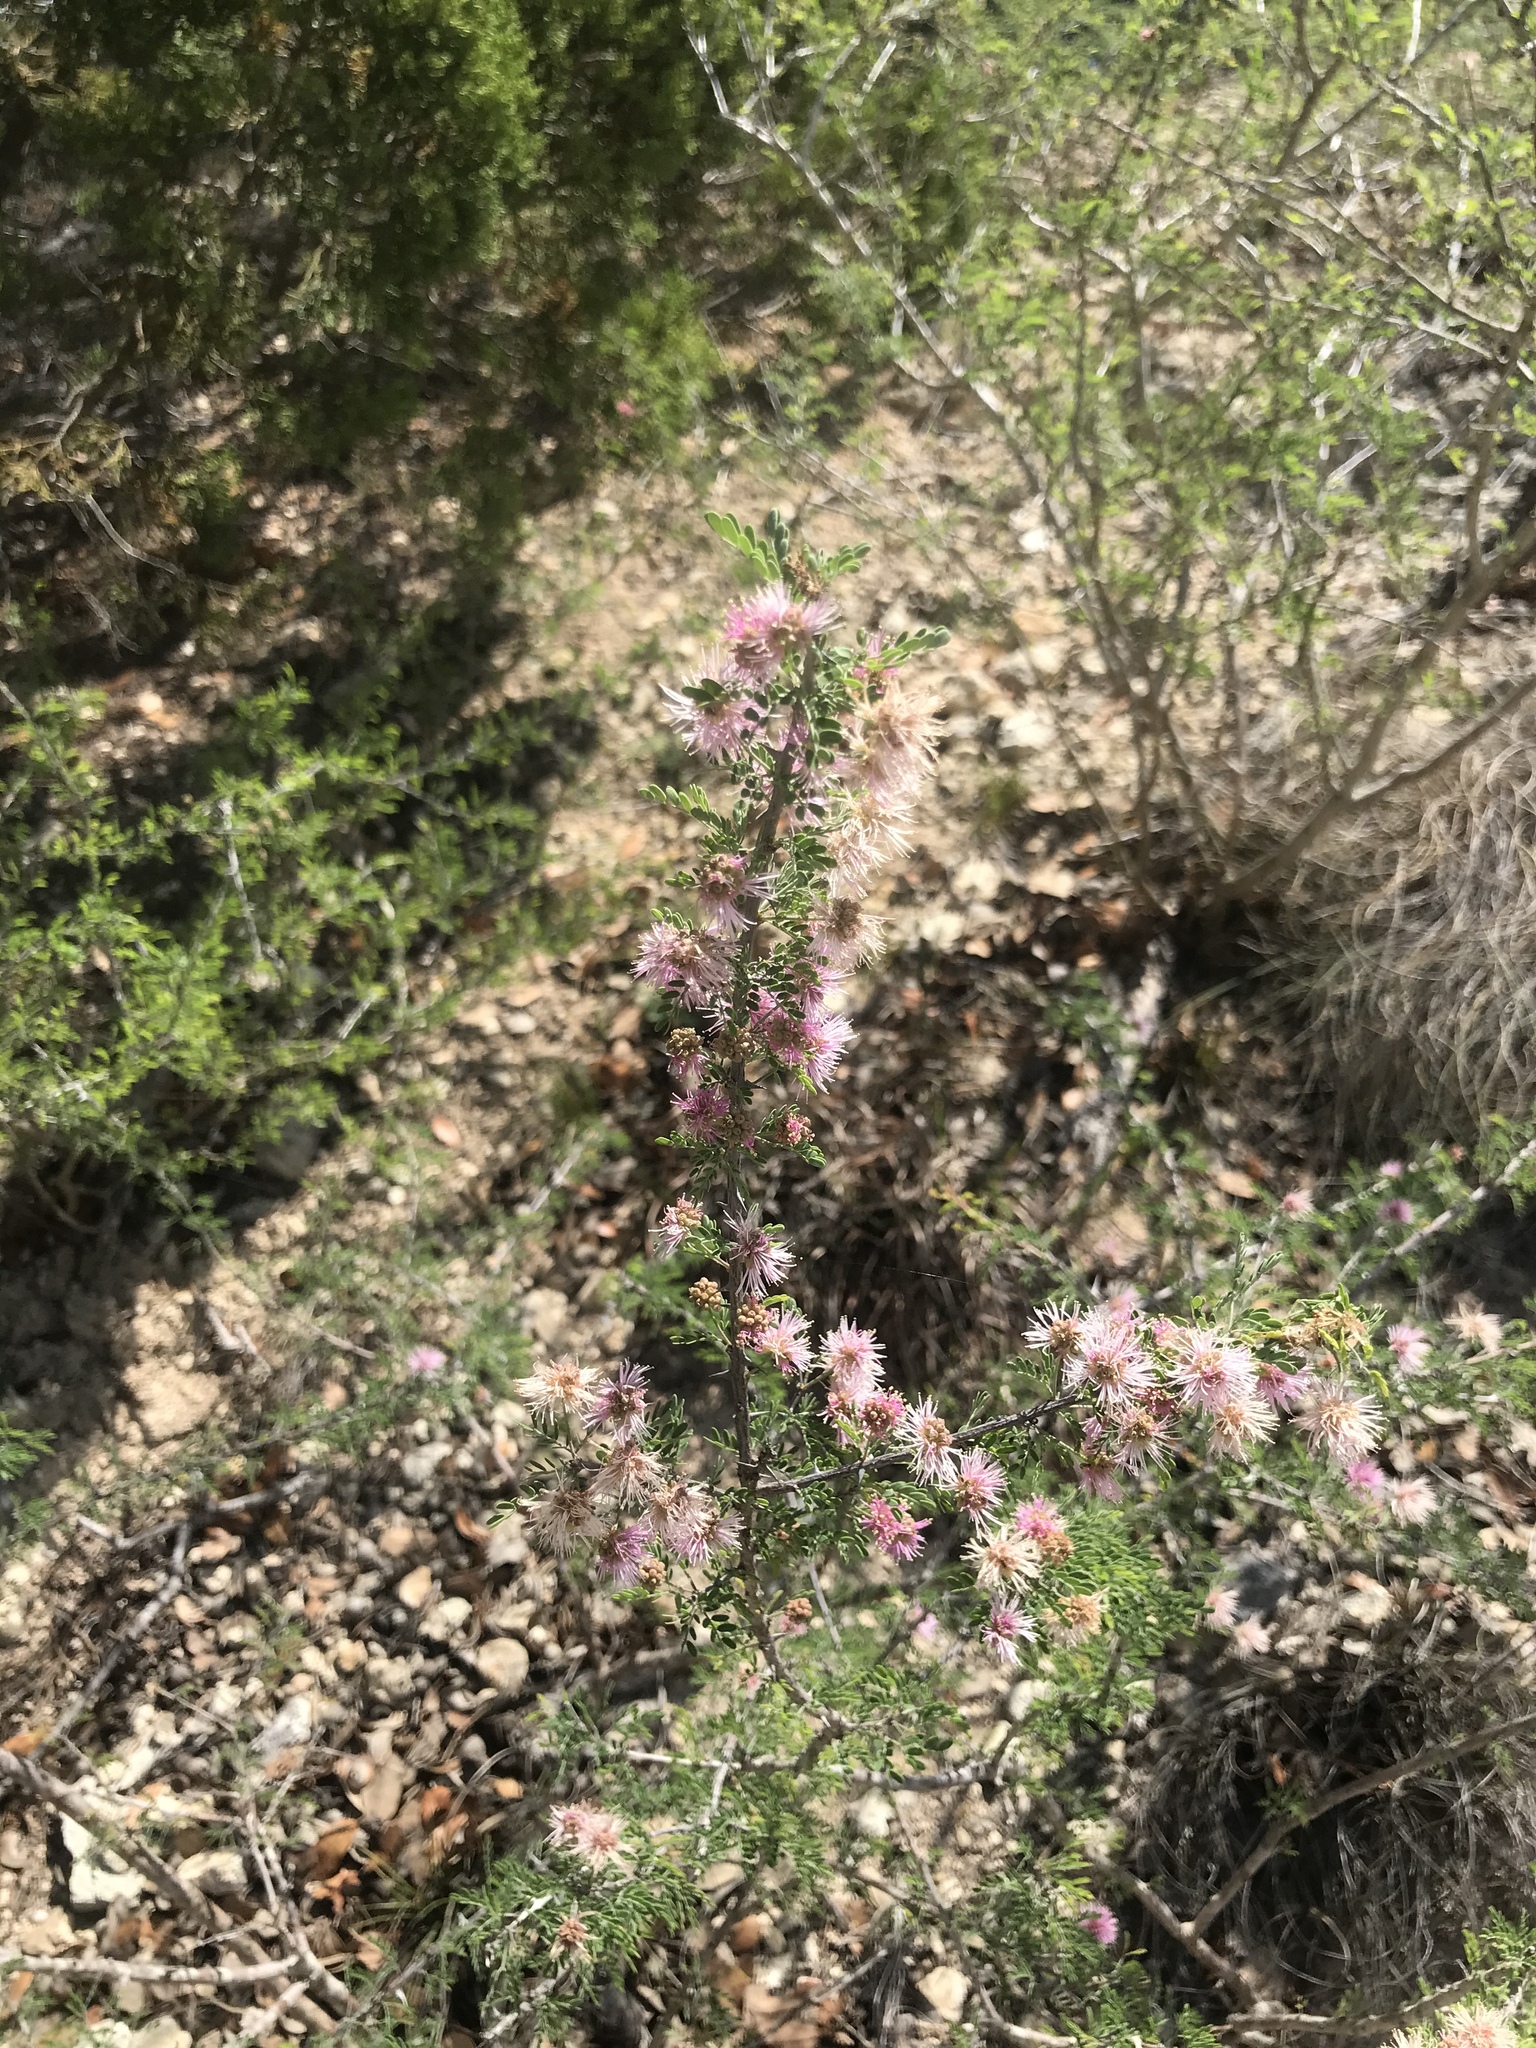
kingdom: Plantae
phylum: Tracheophyta
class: Magnoliopsida
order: Fabales
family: Fabaceae
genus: Mimosa
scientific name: Mimosa borealis
